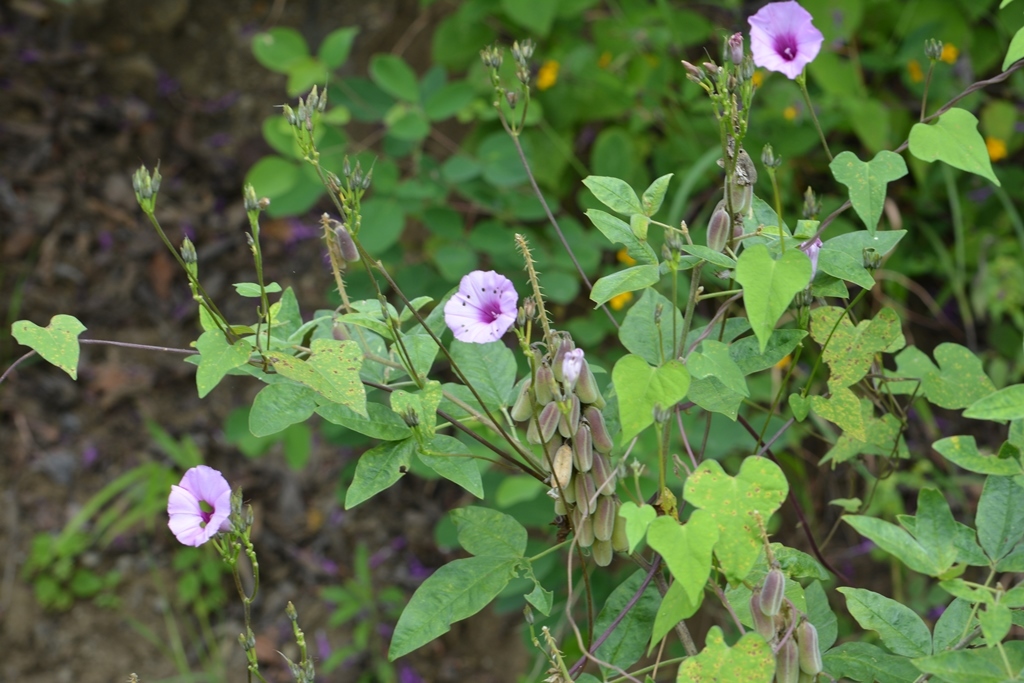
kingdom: Plantae
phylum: Tracheophyta
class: Magnoliopsida
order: Solanales
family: Convolvulaceae
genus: Ipomoea
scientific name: Ipomoea trifida
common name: Cotton morningglory
